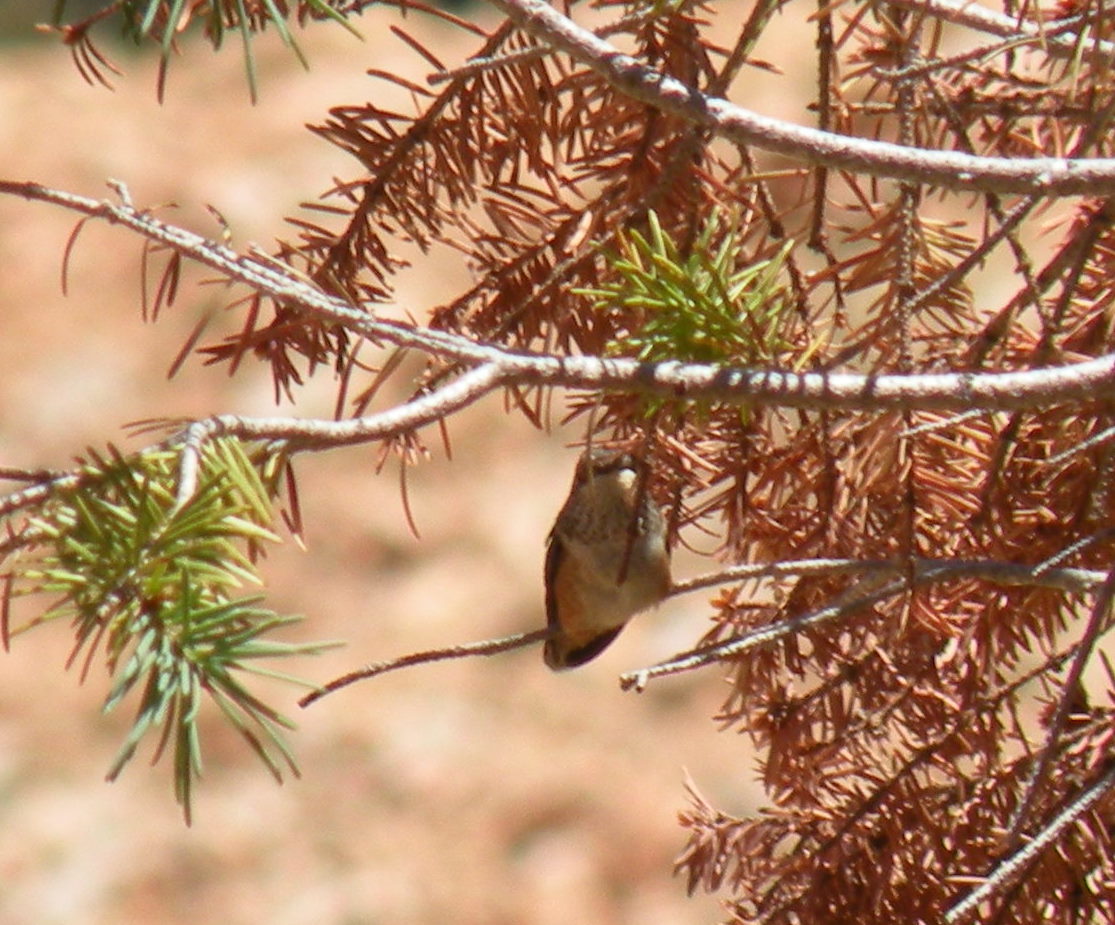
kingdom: Animalia
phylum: Chordata
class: Aves
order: Apodiformes
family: Trochilidae
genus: Selasphorus
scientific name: Selasphorus rufus
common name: Rufous hummingbird
